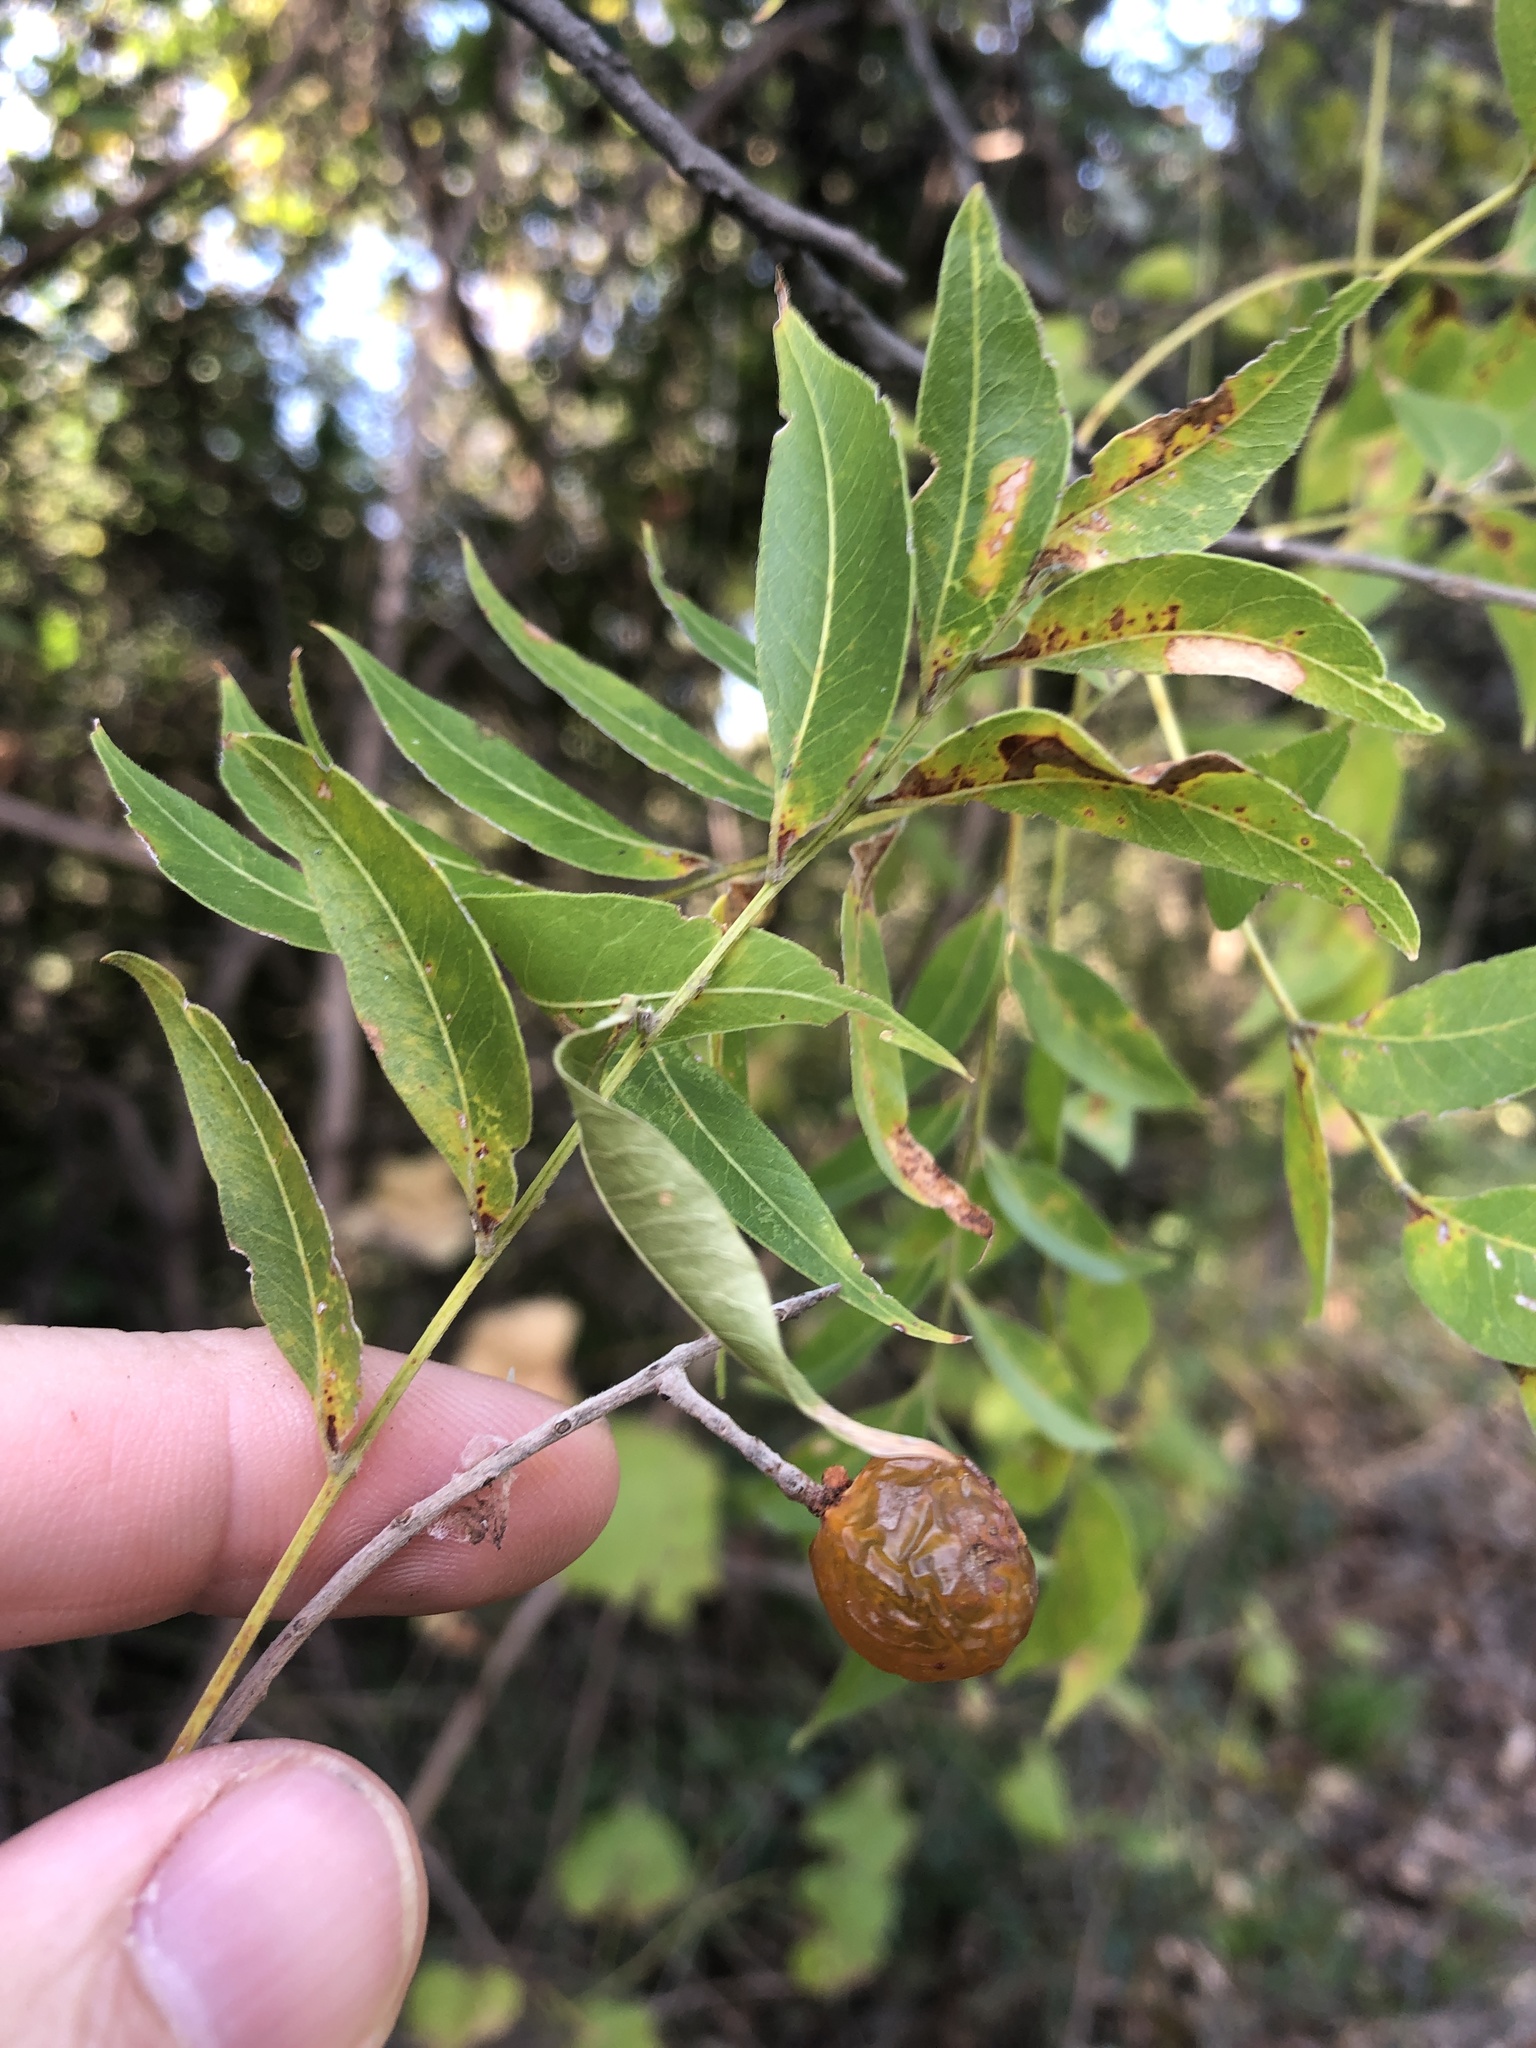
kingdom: Plantae
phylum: Tracheophyta
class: Magnoliopsida
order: Sapindales
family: Sapindaceae
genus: Sapindus
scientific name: Sapindus drummondii
